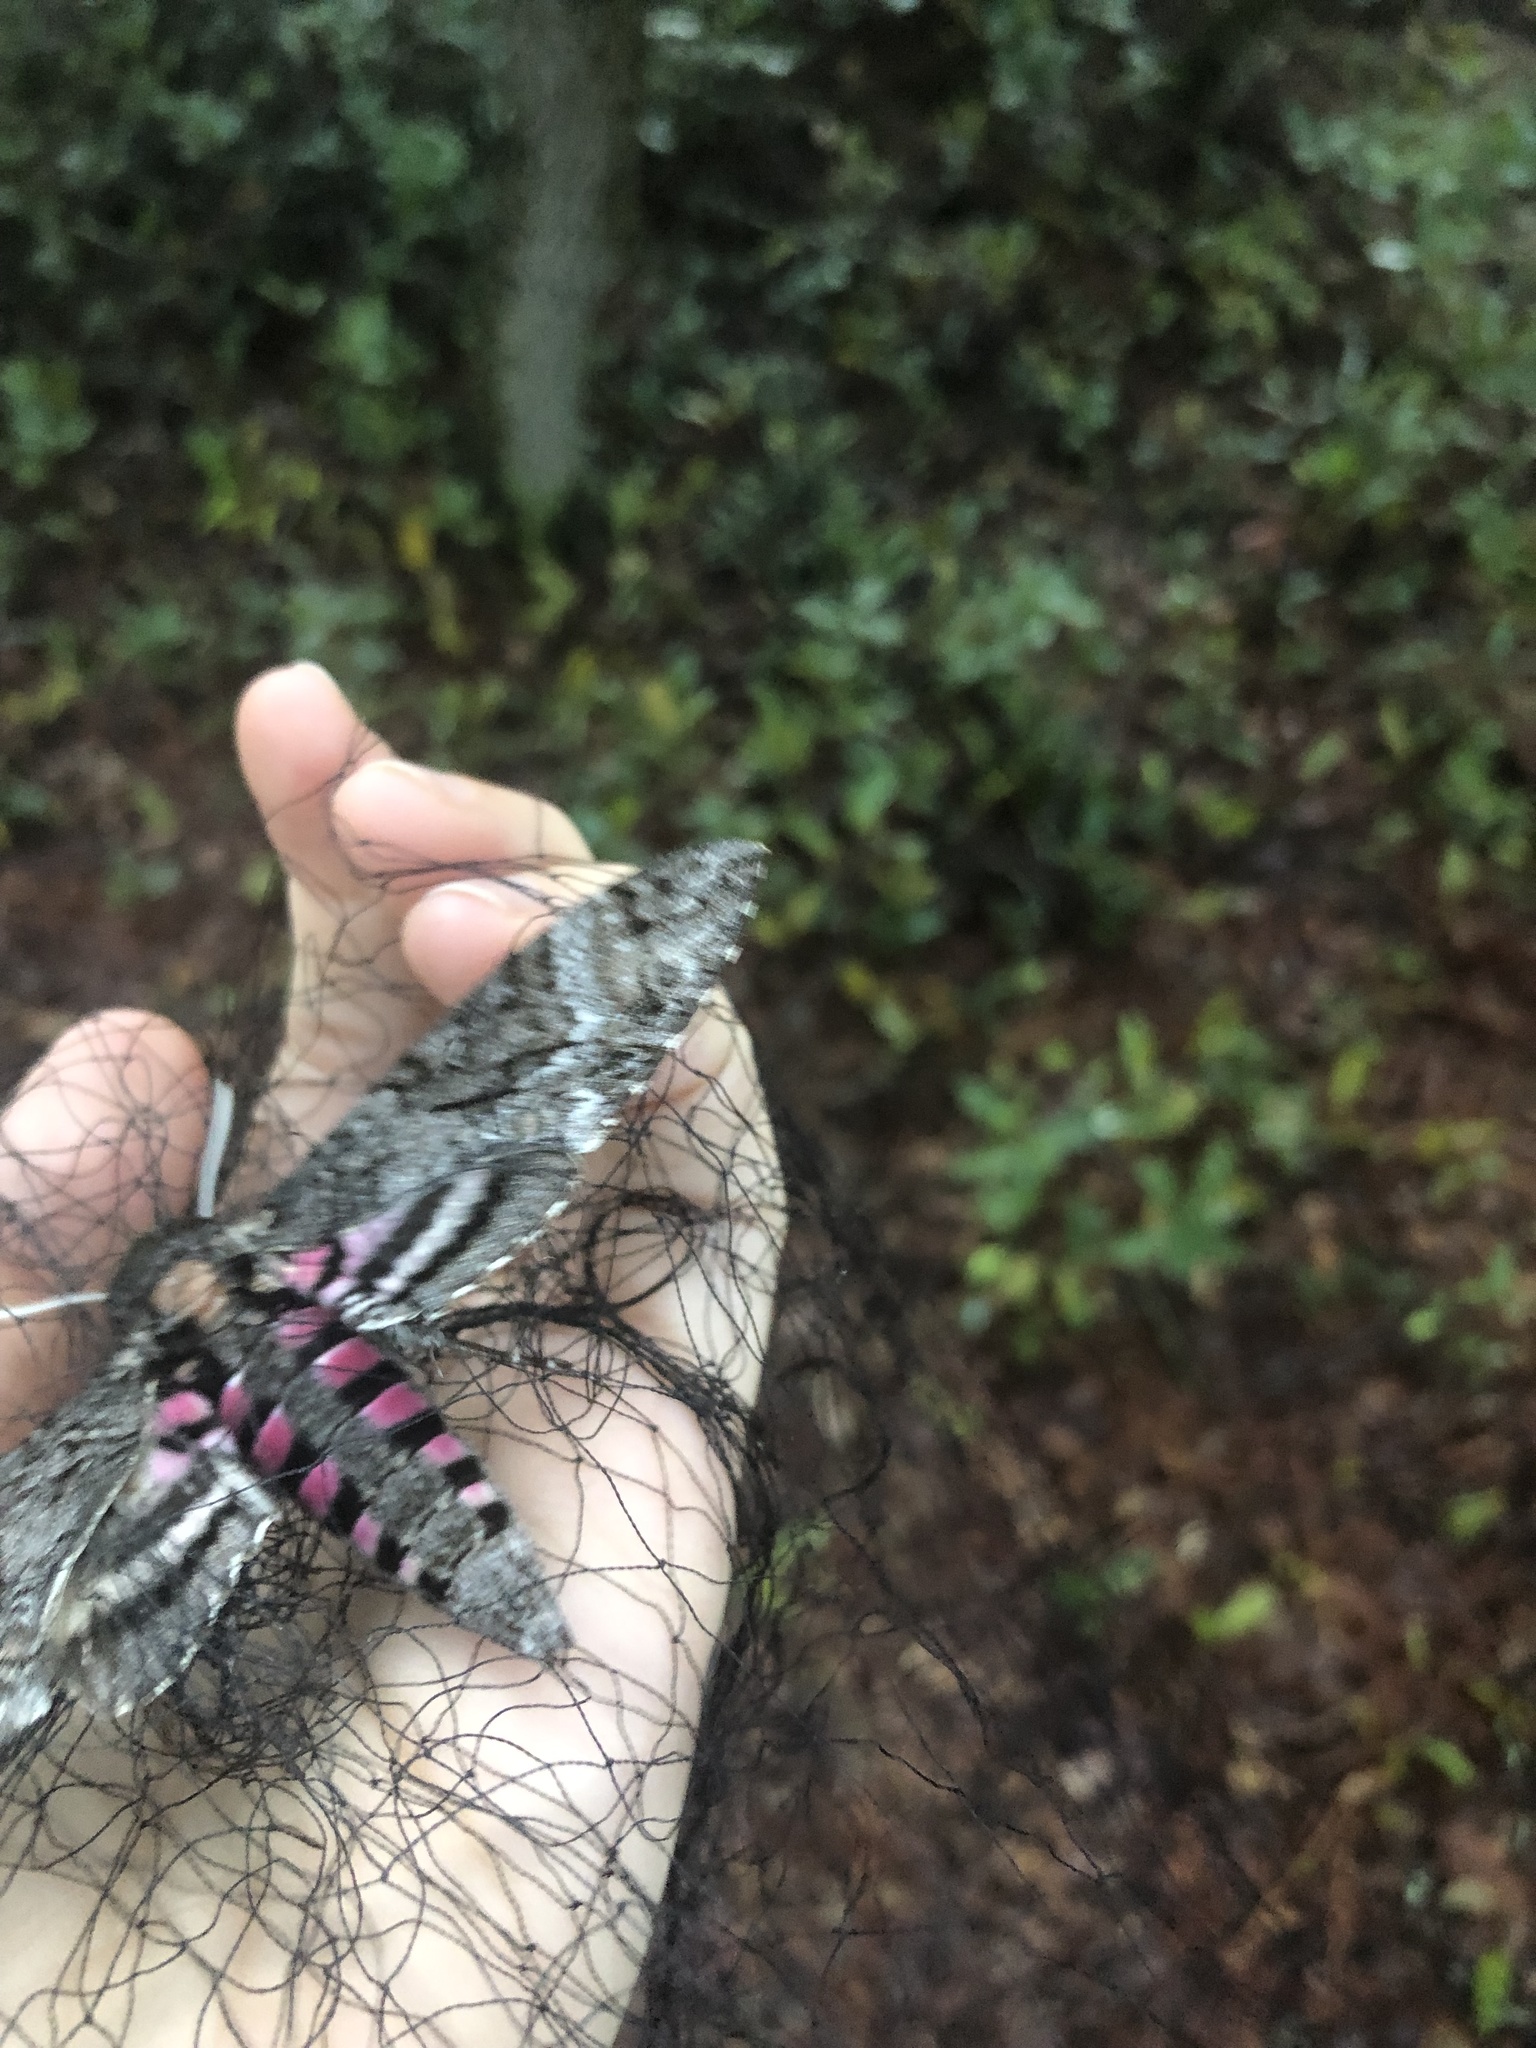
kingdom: Animalia
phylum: Arthropoda
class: Insecta
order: Lepidoptera
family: Sphingidae
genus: Agrius
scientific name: Agrius cingulata
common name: Pink-spotted hawkmoth
